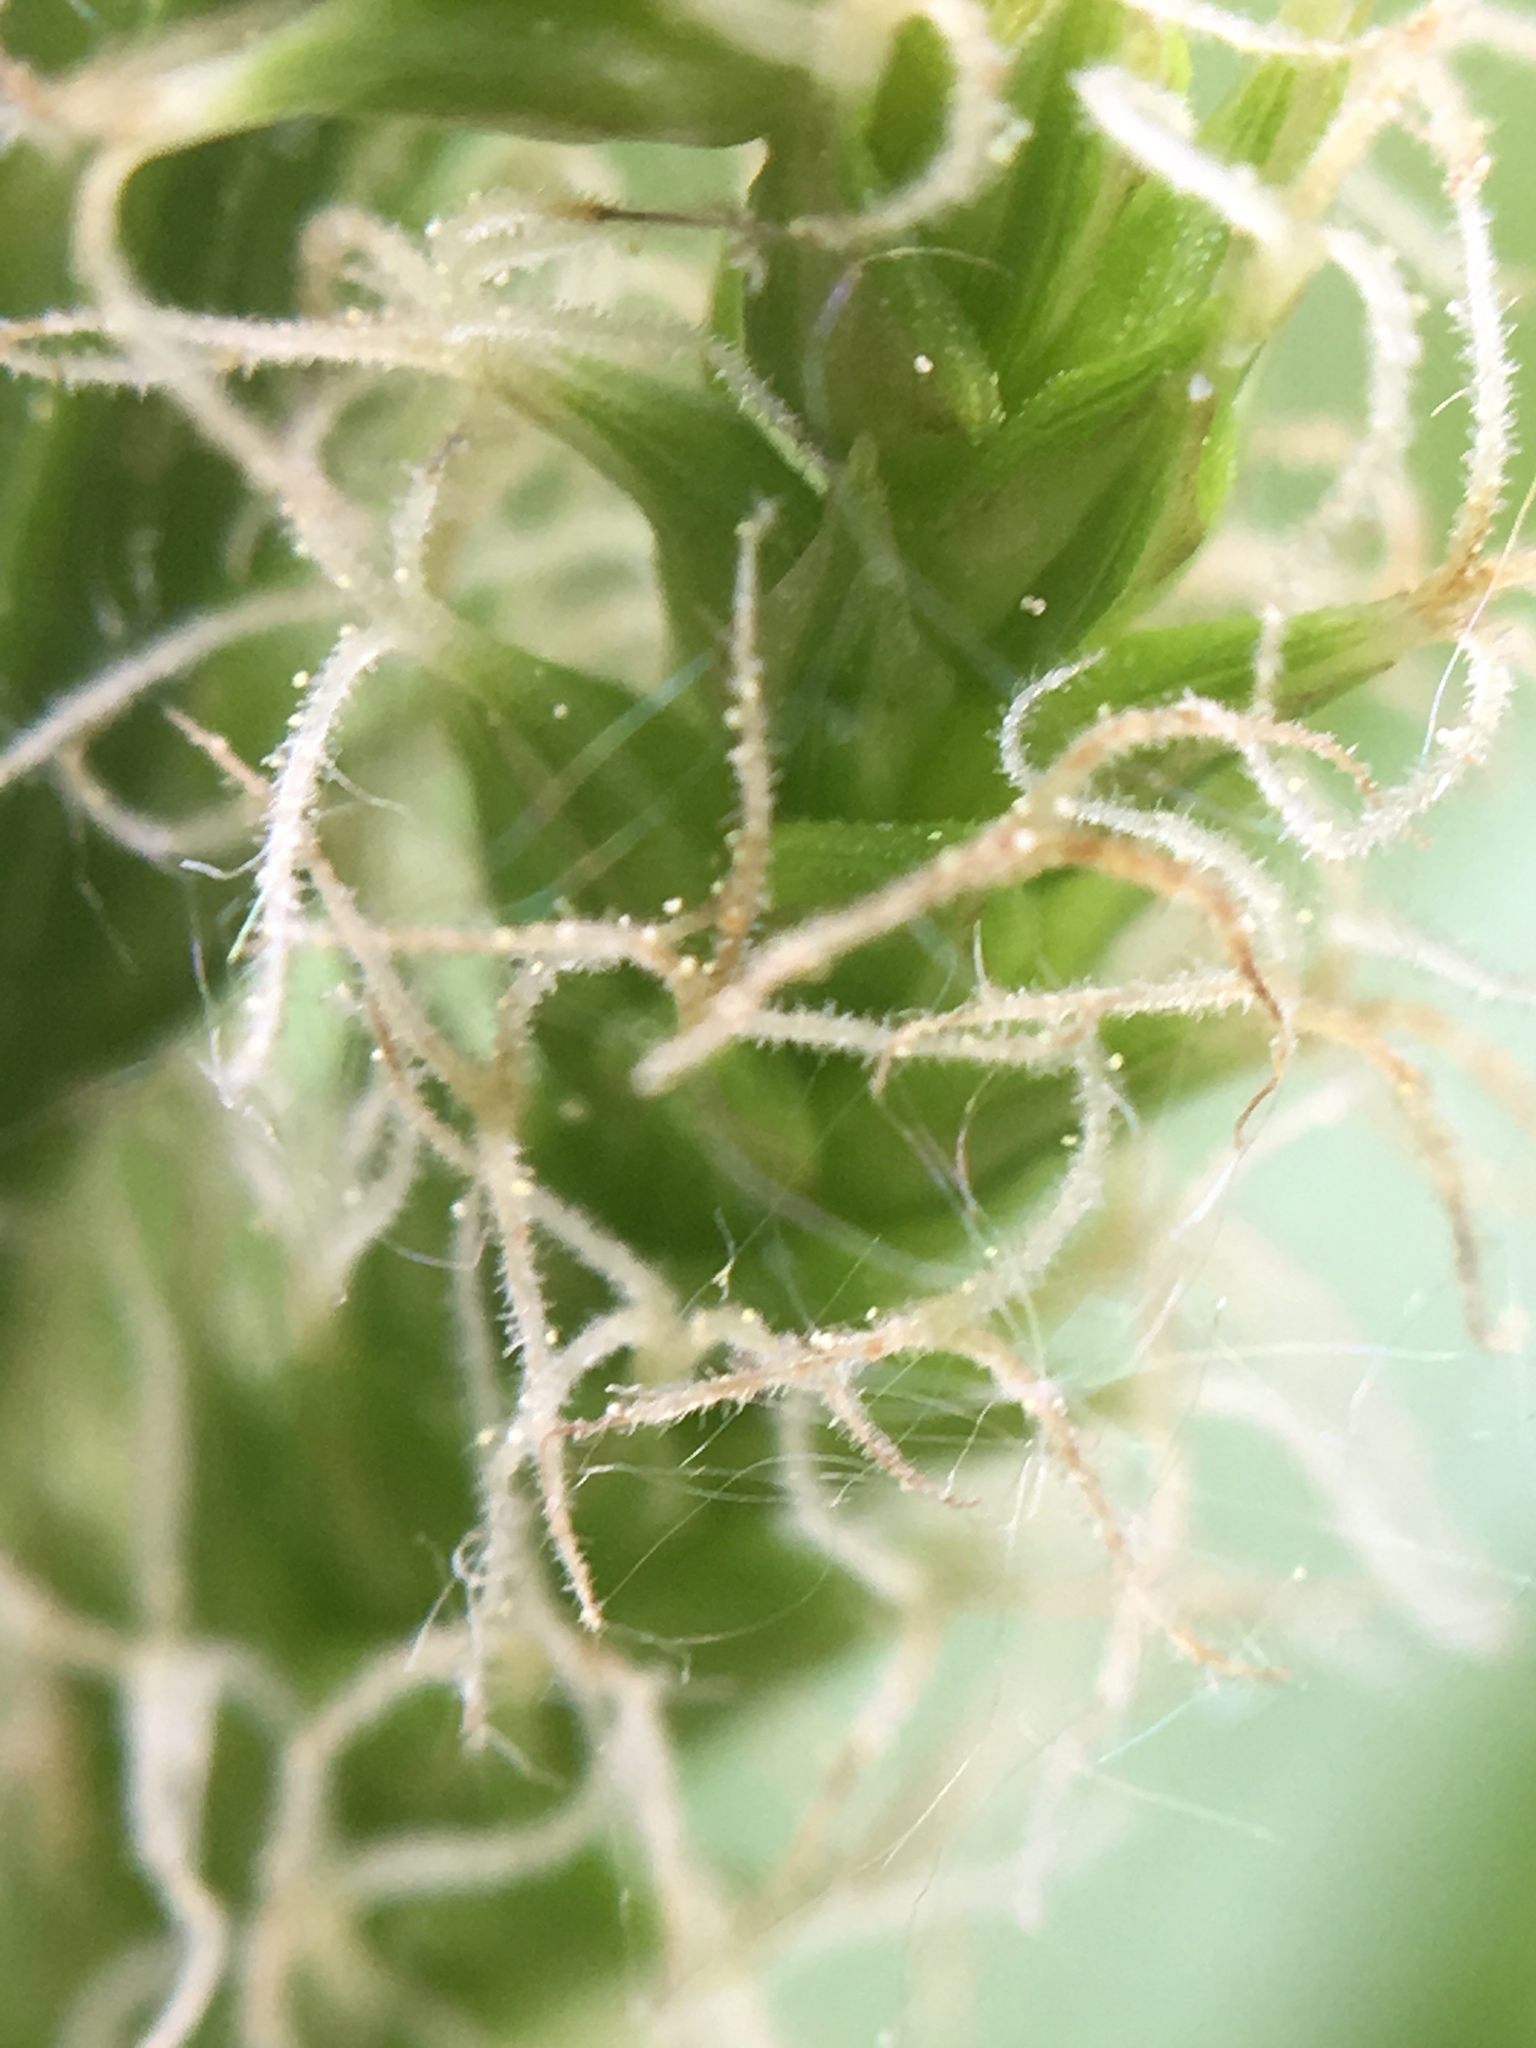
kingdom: Plantae
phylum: Tracheophyta
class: Liliopsida
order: Poales
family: Cyperaceae
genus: Carex
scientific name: Carex scabrata
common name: Eastern rough sedge
